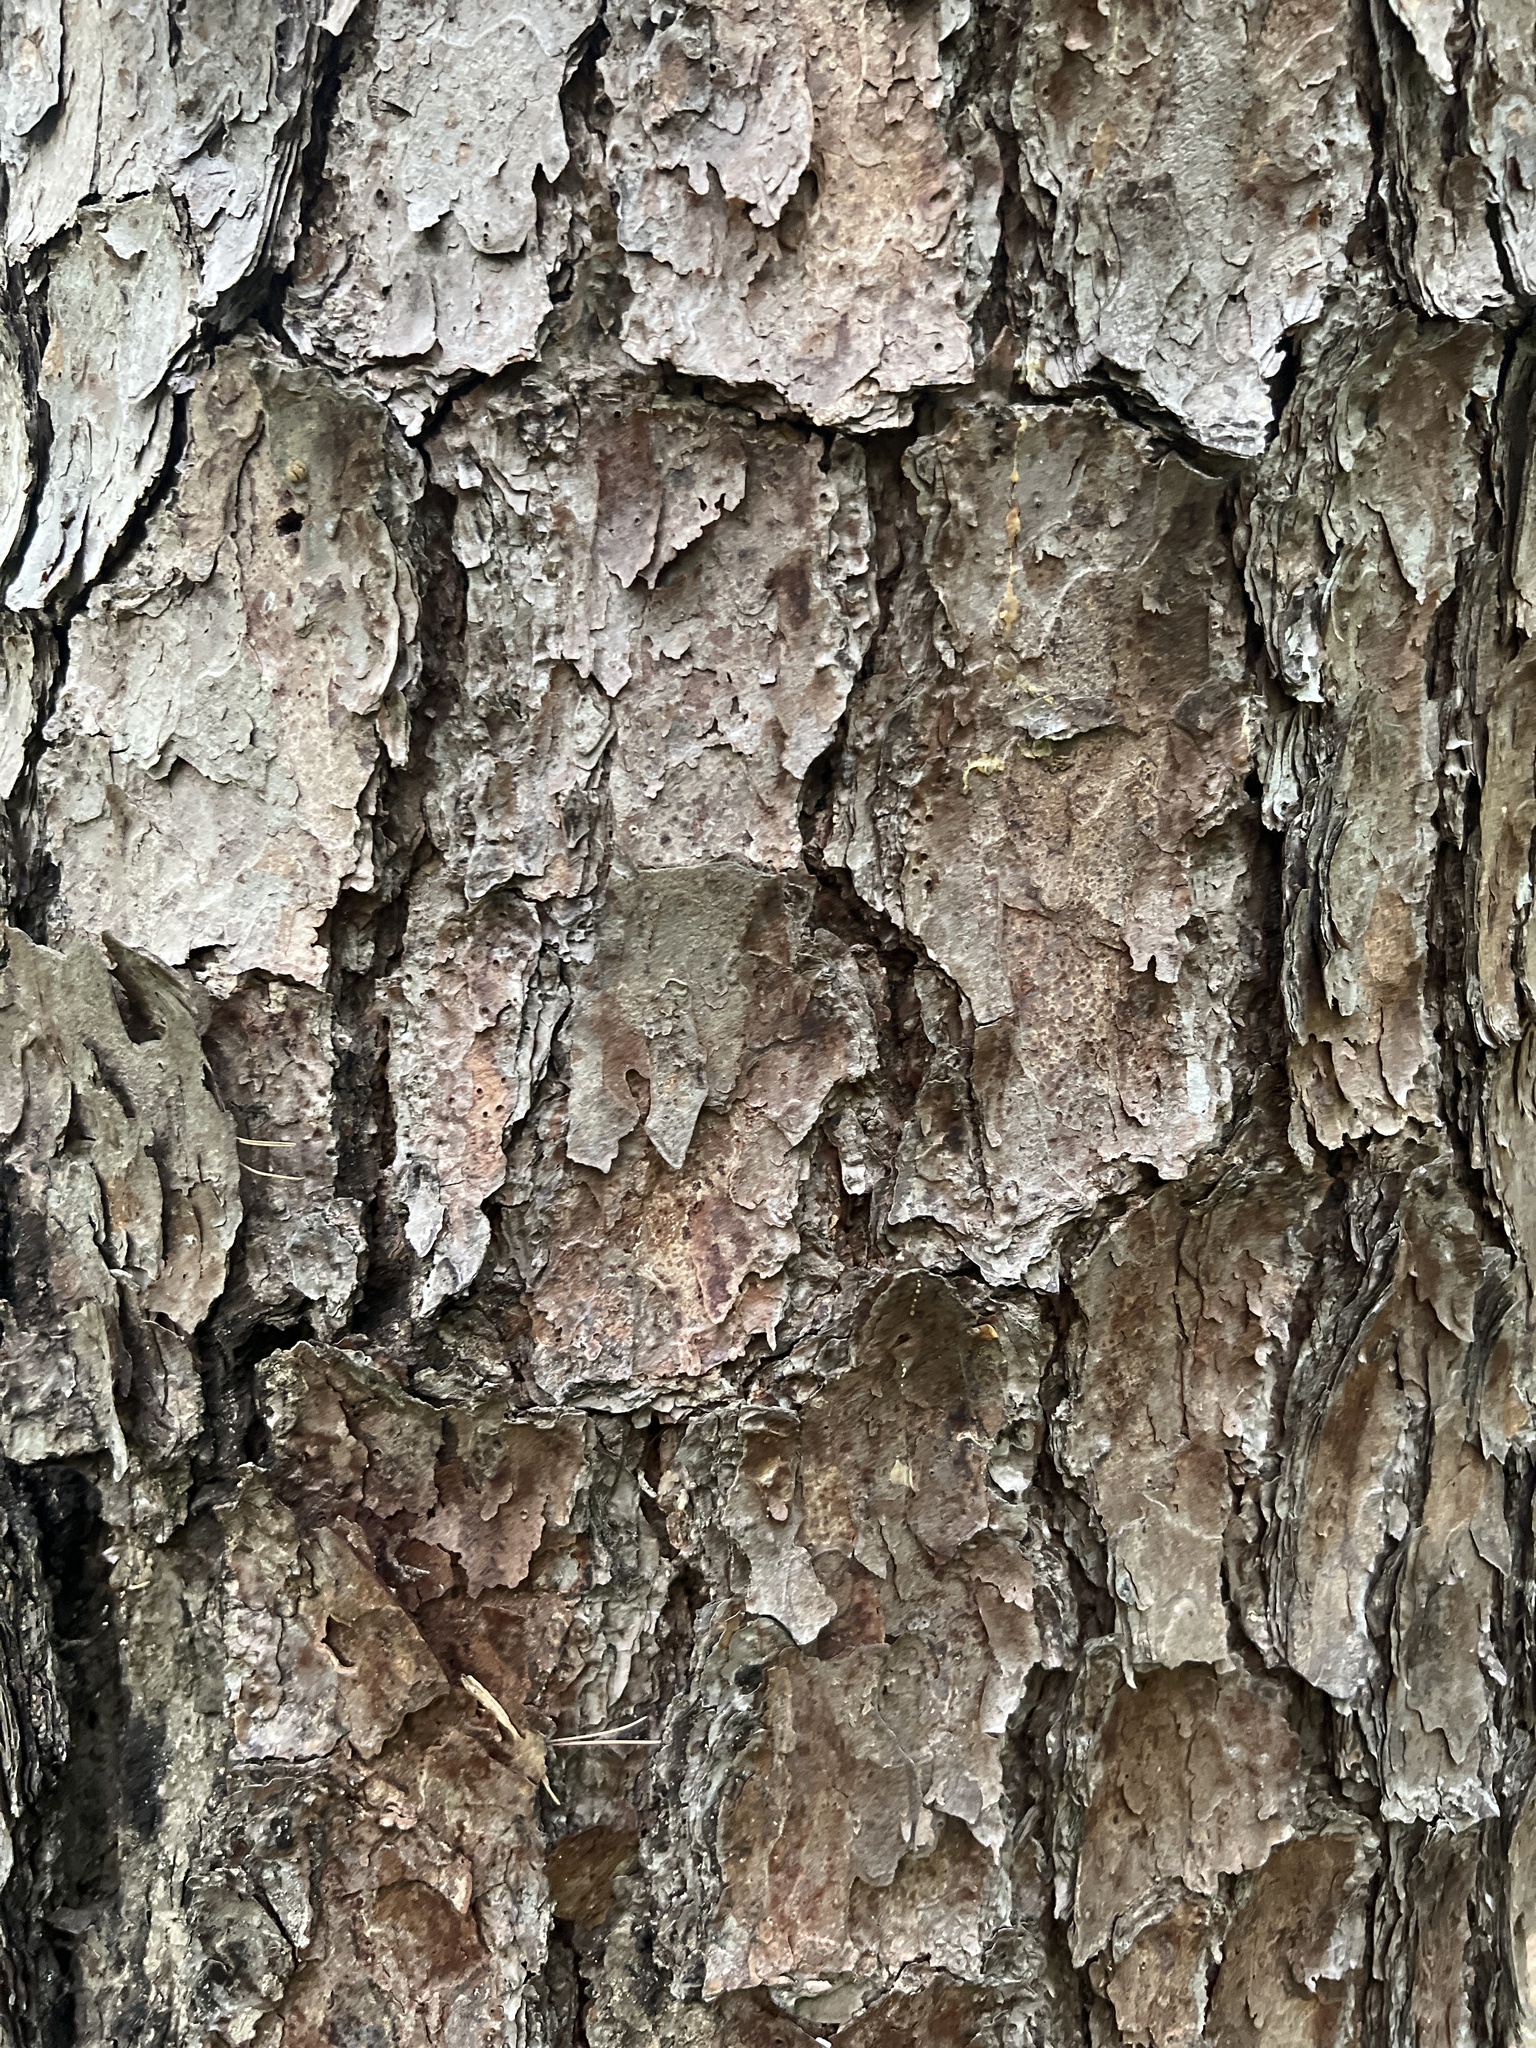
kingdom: Plantae
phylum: Tracheophyta
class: Pinopsida
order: Pinales
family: Pinaceae
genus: Pinus
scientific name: Pinus echinata
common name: Shortleaf pine
